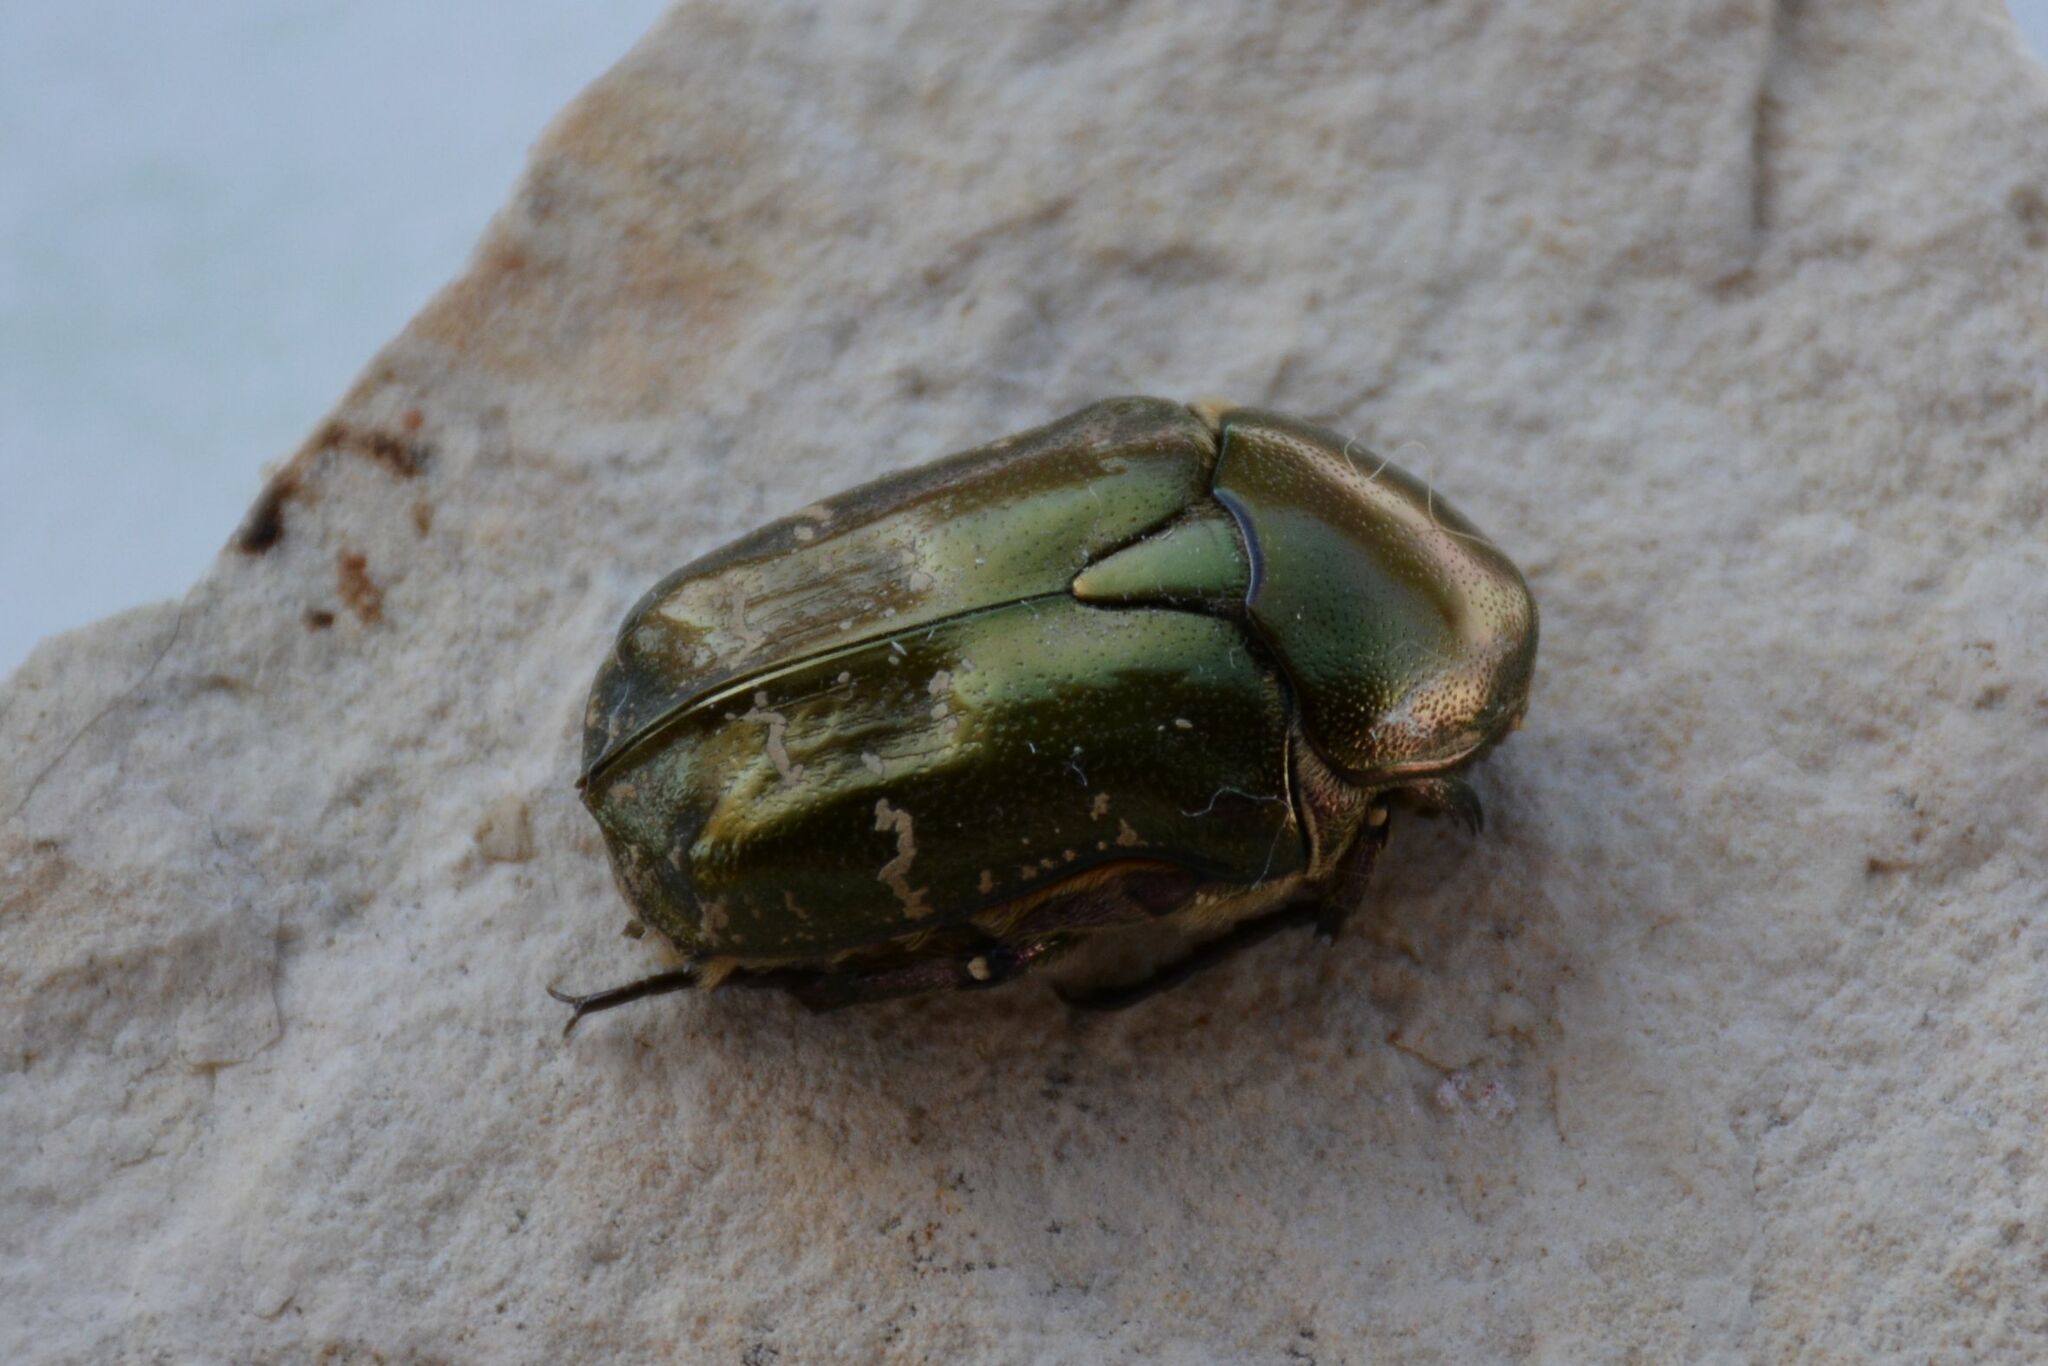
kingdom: Animalia
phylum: Arthropoda
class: Insecta
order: Coleoptera
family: Scarabaeidae
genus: Protaetia
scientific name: Protaetia cuprea
